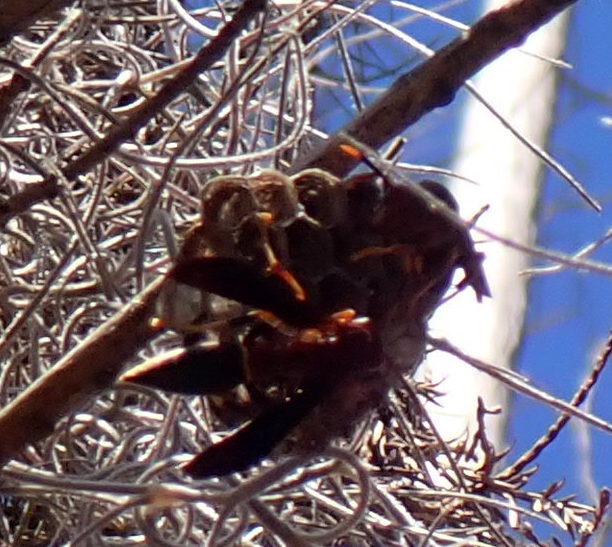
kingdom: Animalia
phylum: Arthropoda
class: Insecta
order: Hymenoptera
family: Eumenidae
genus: Polistes
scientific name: Polistes annularis
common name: Ringed paper wasp
